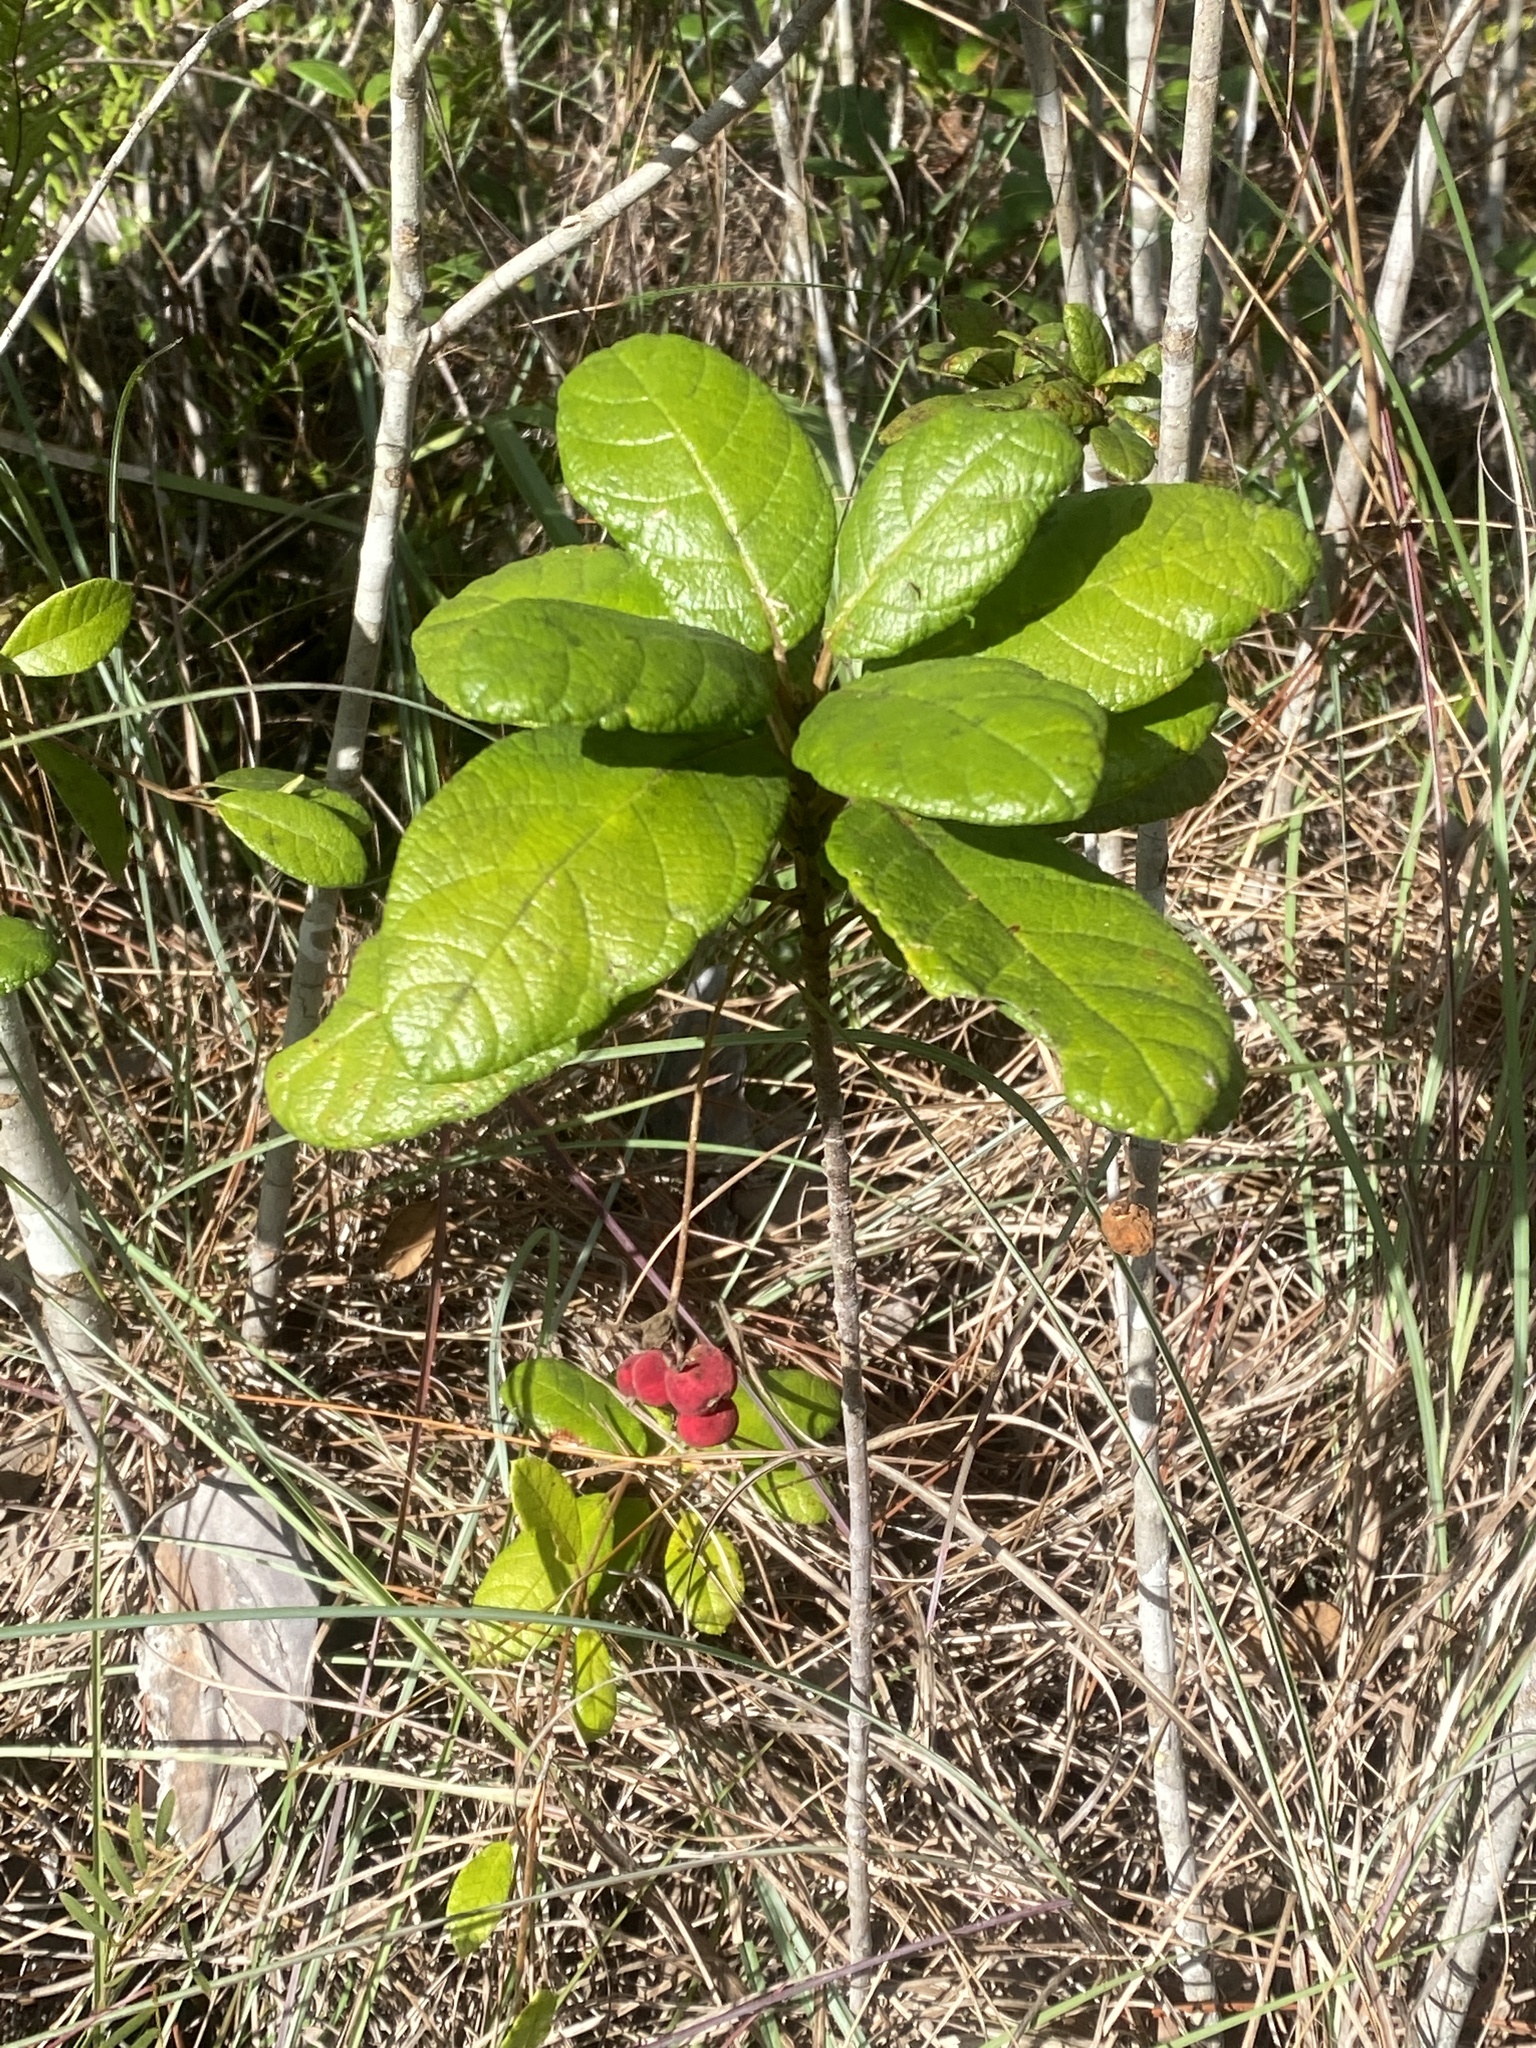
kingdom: Plantae
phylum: Tracheophyta
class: Magnoliopsida
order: Gentianales
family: Rubiaceae
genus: Guettarda
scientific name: Guettarda scabra
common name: Pigeon bay
